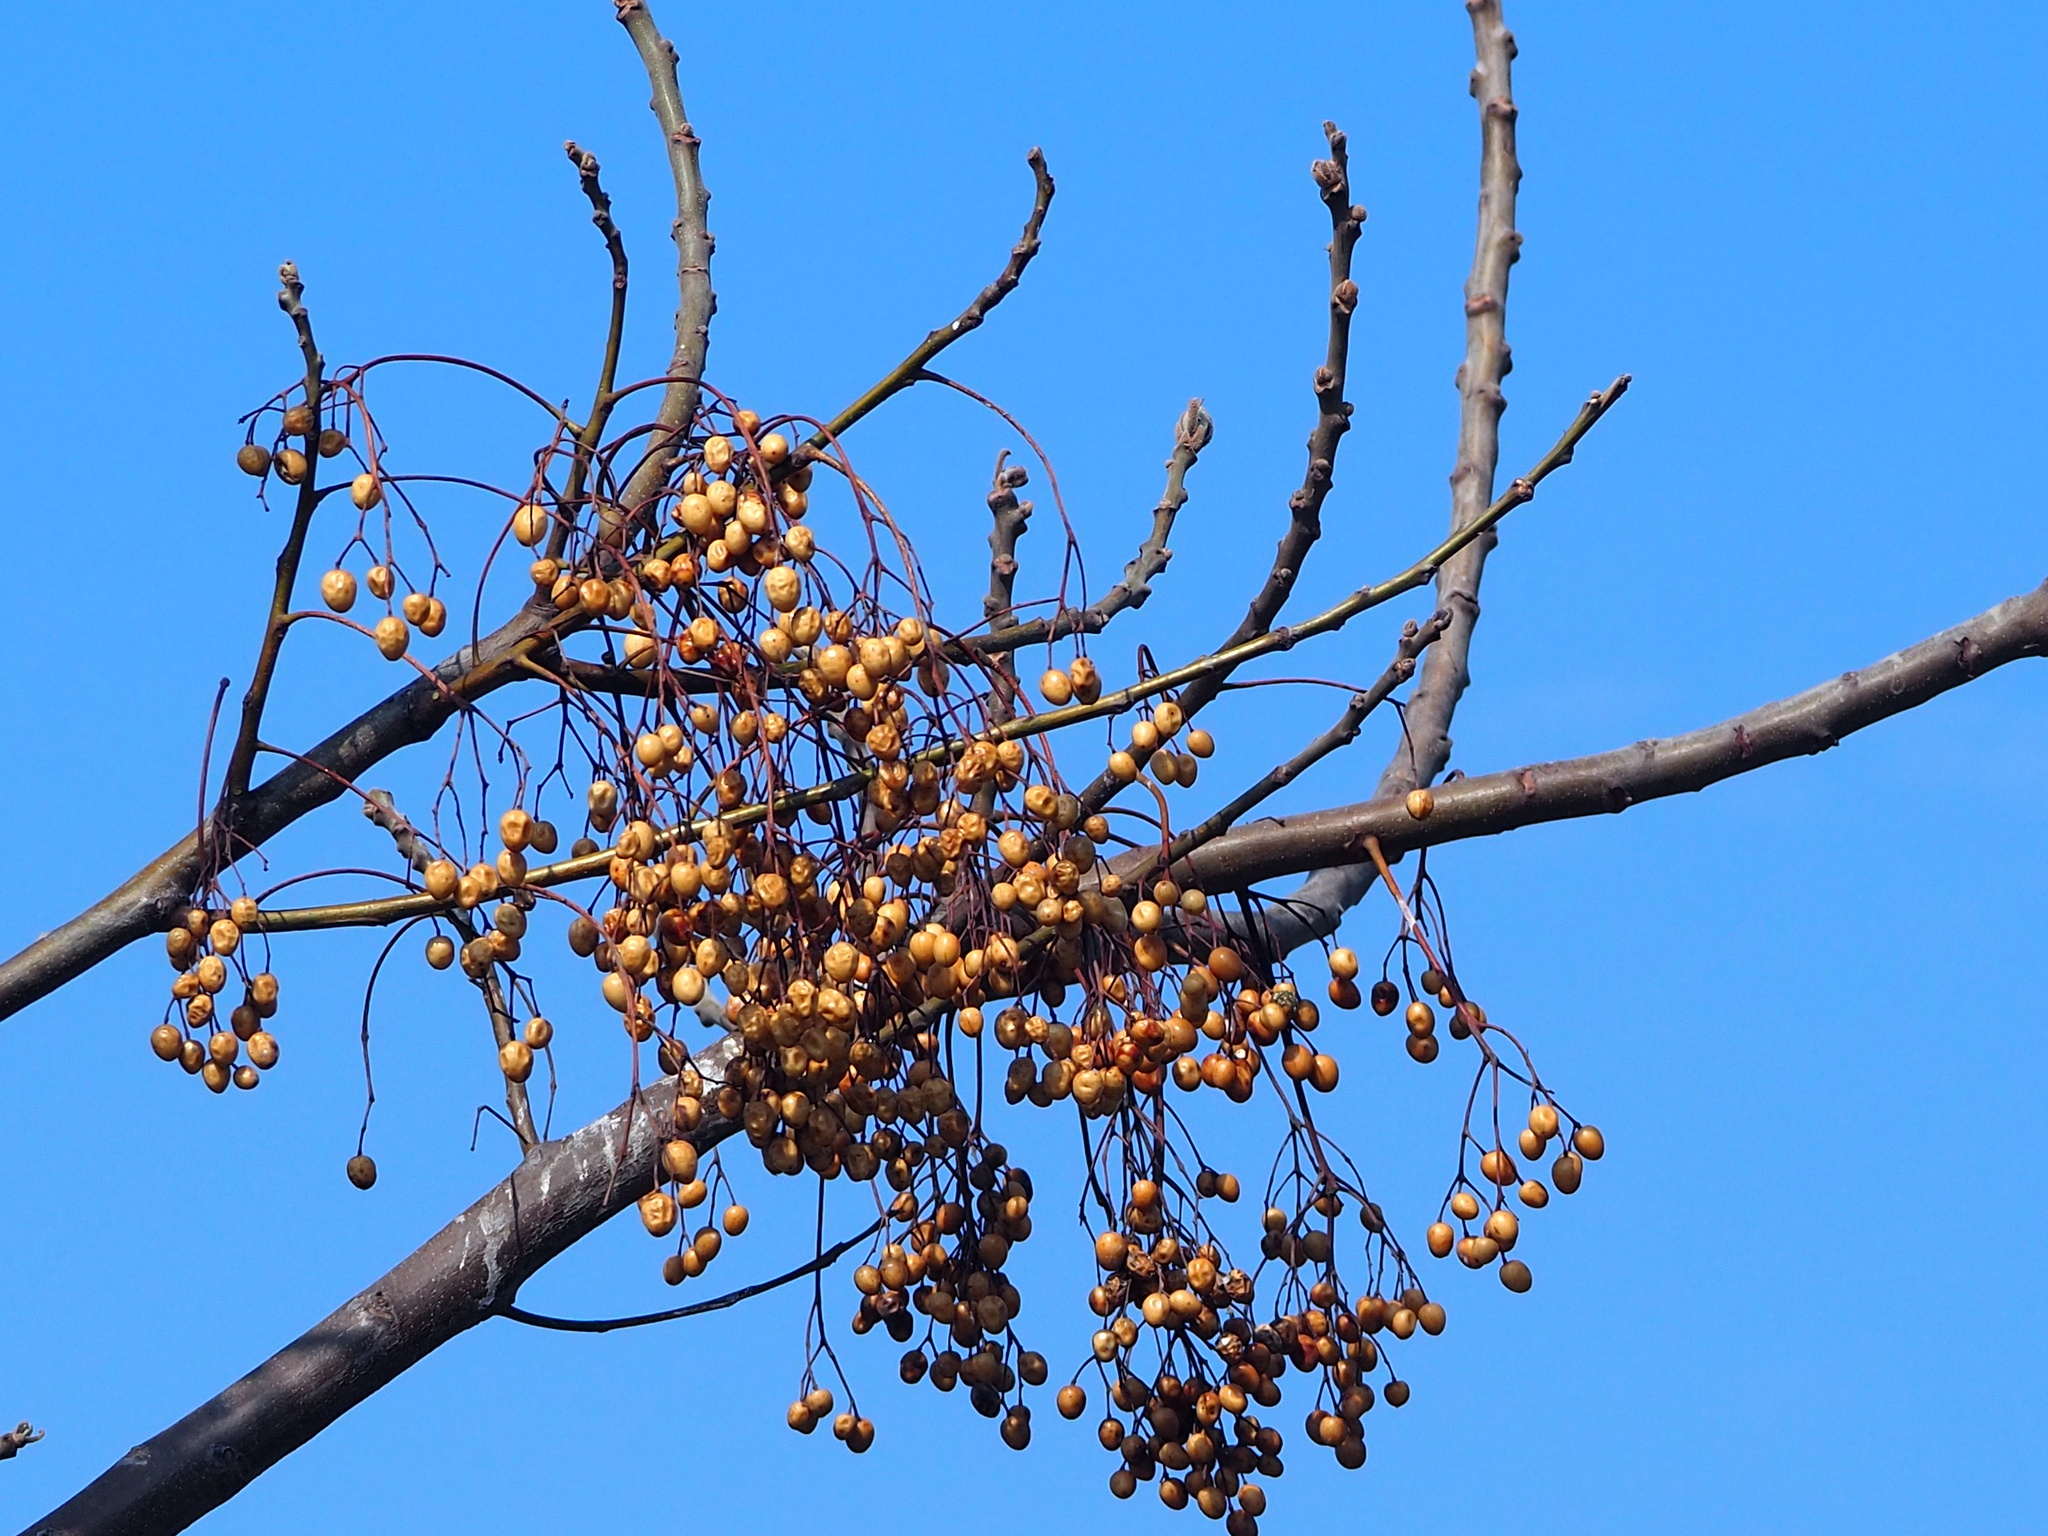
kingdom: Plantae
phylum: Tracheophyta
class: Magnoliopsida
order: Sapindales
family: Meliaceae
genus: Melia
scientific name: Melia azedarach
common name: Chinaberrytree
